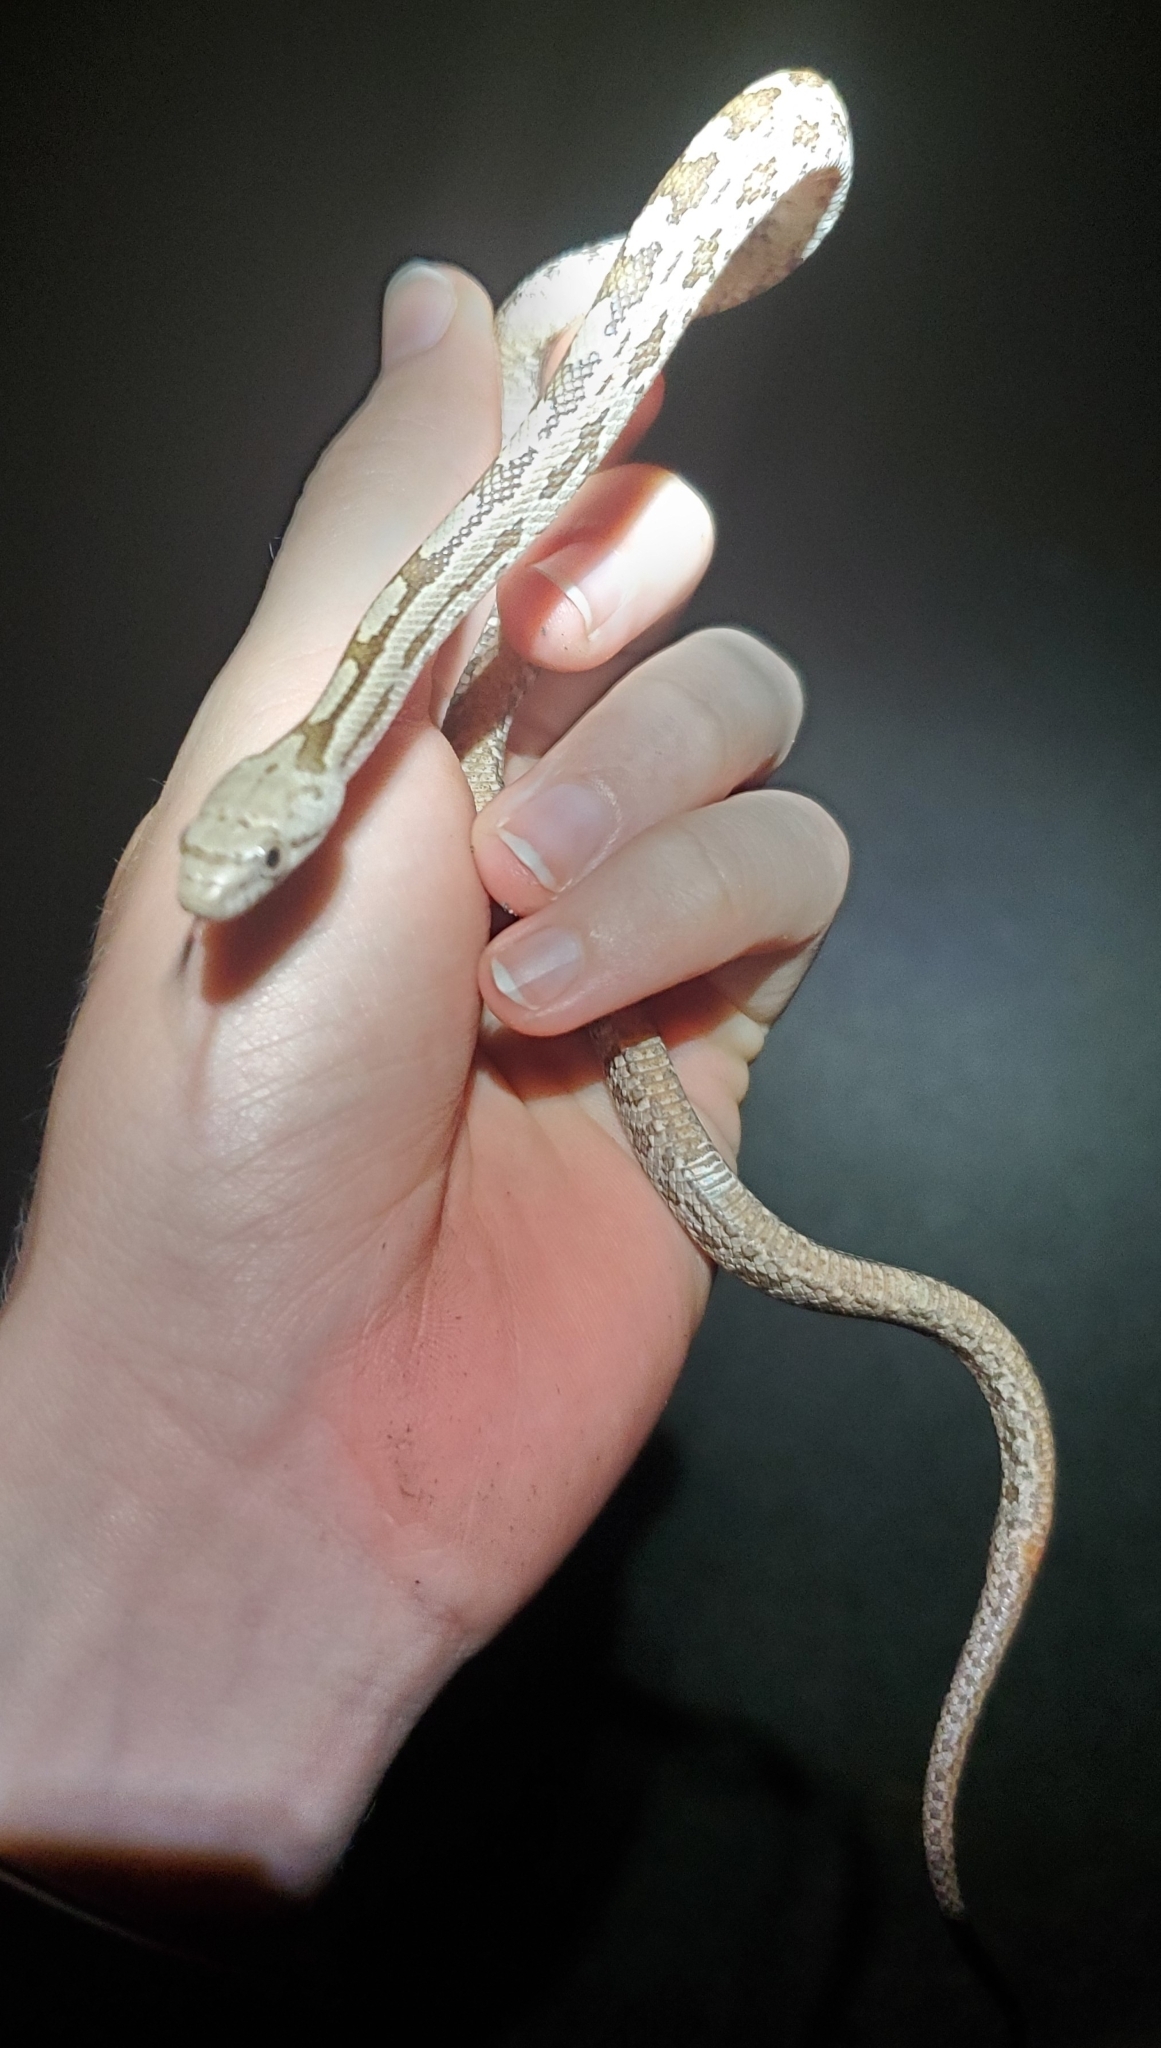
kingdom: Animalia
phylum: Chordata
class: Squamata
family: Colubridae
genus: Pantherophis
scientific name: Pantherophis alleghaniensis
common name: Eastern rat snake
